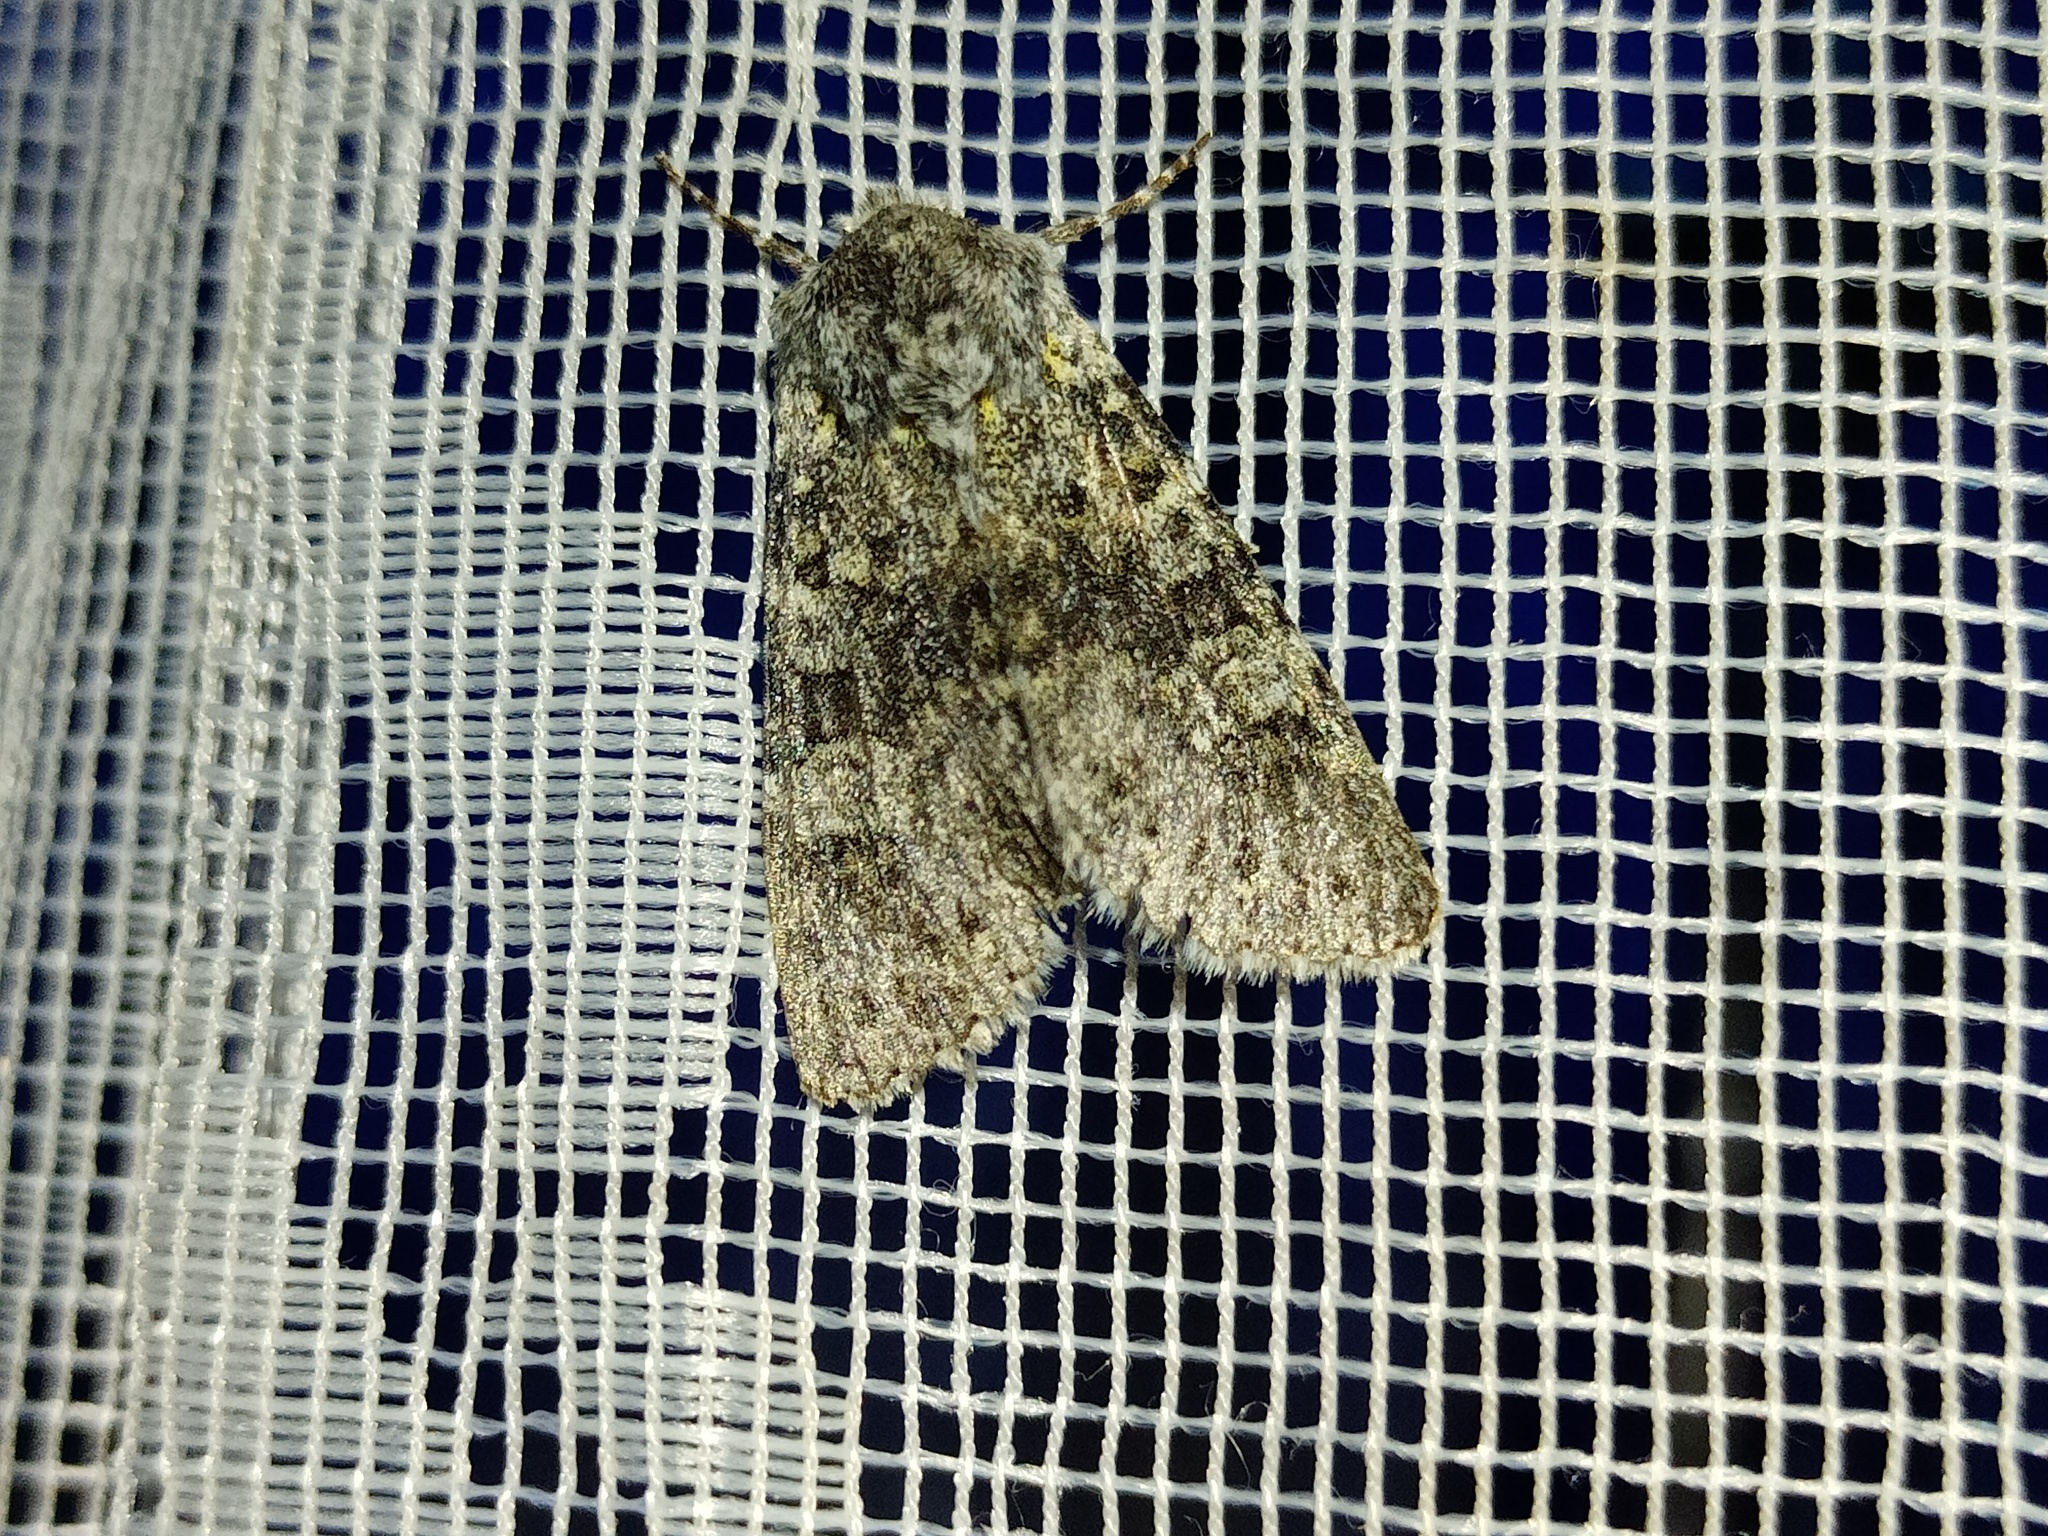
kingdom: Animalia
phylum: Arthropoda
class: Insecta
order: Lepidoptera
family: Noctuidae
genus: Polymixis
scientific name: Polymixis xanthomista
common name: Black-banded
